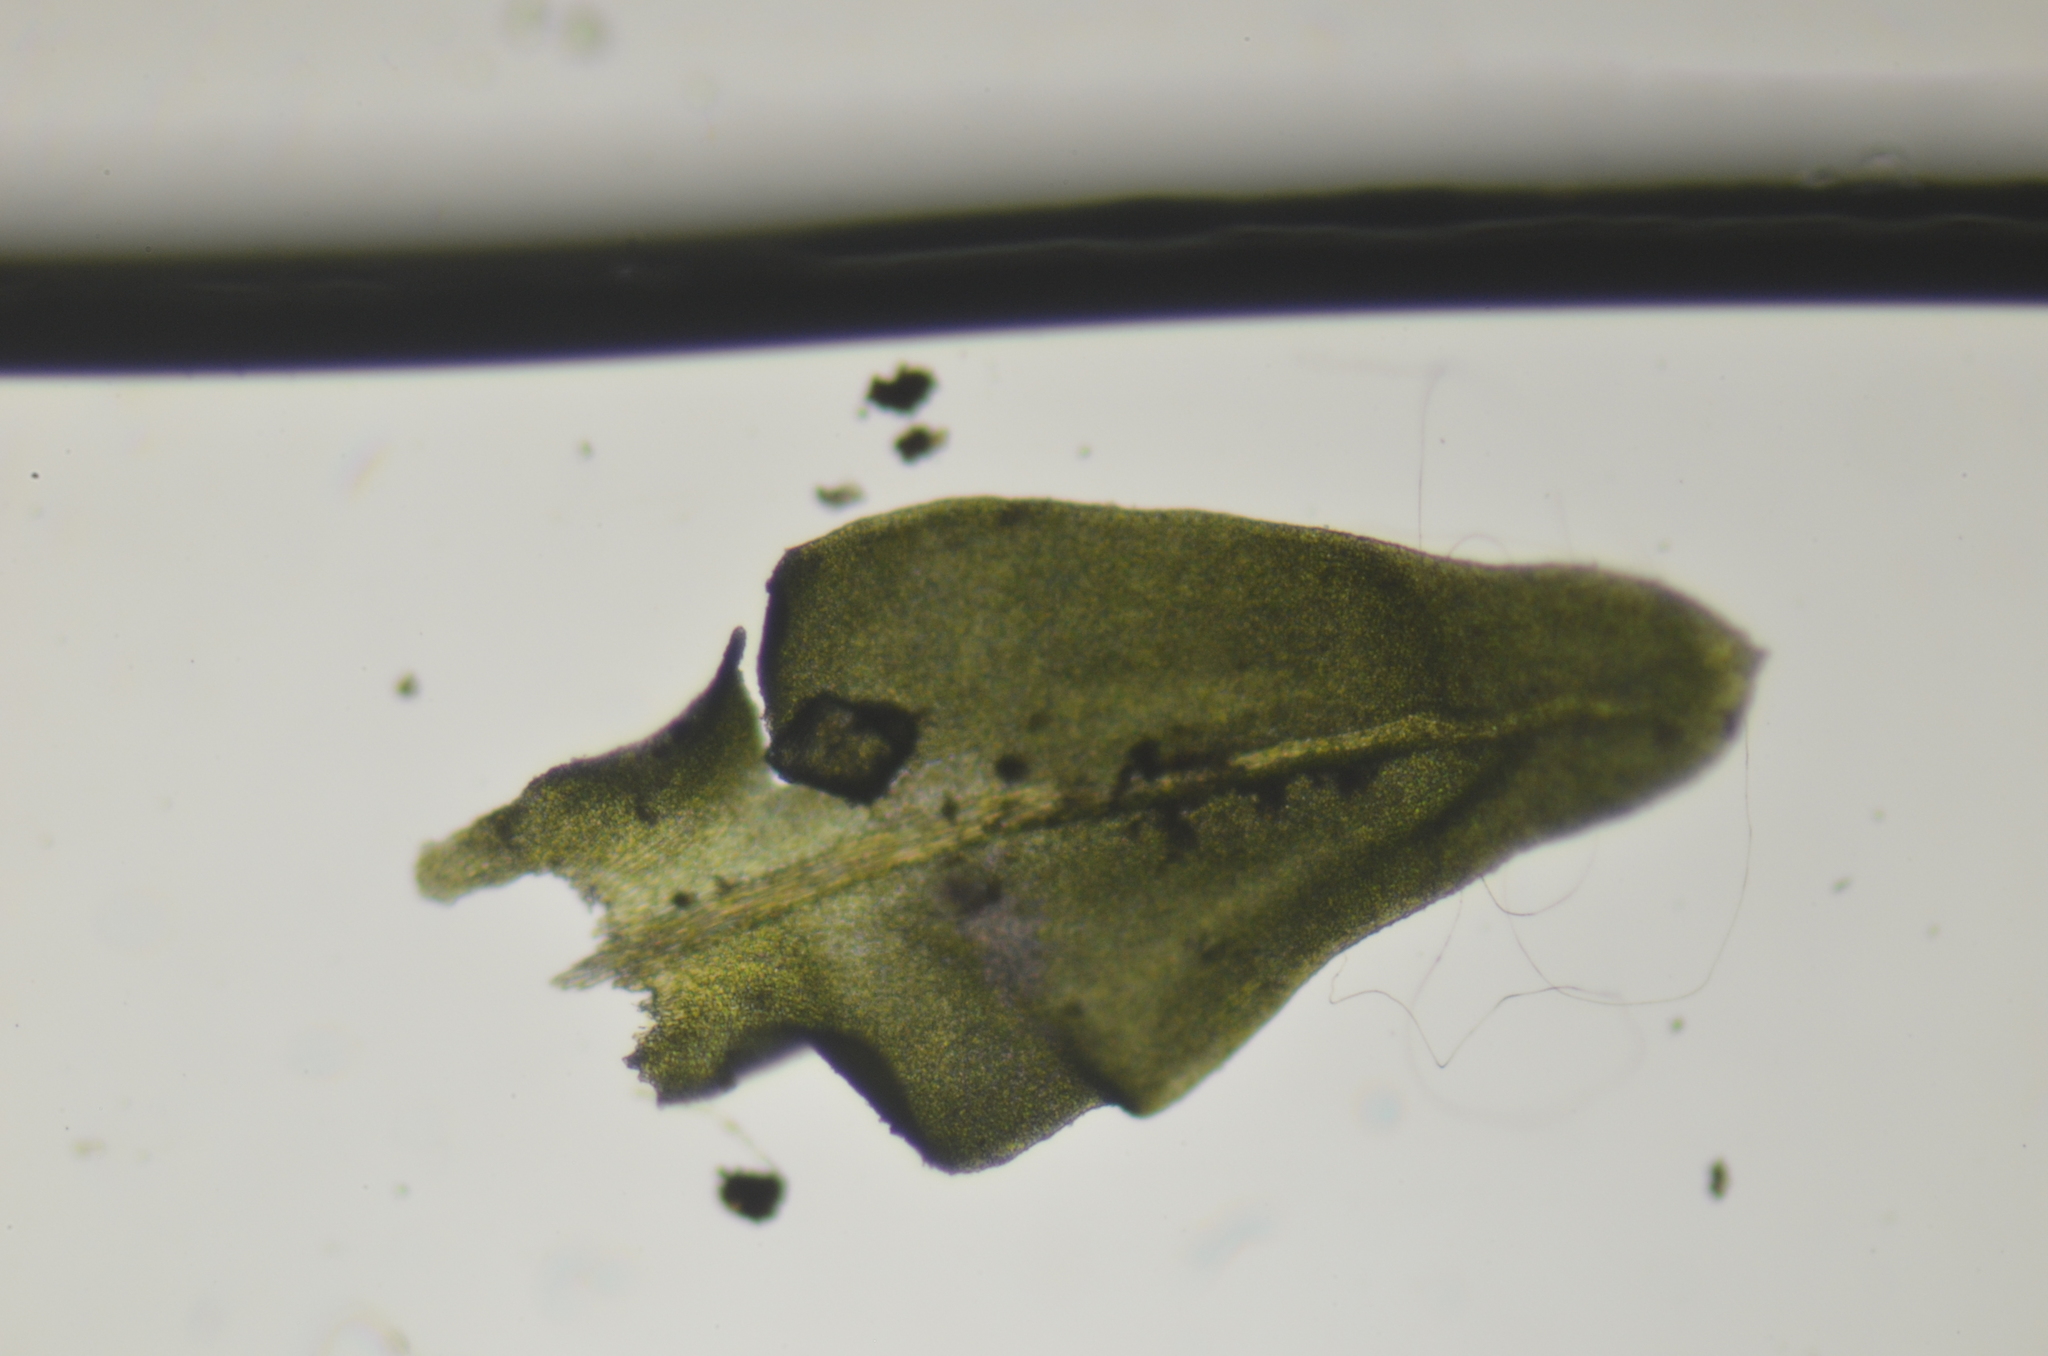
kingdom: Plantae
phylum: Bryophyta
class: Bryopsida
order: Hypnales
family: Neckeraceae
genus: Pseudanomodon
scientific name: Pseudanomodon attenuatus
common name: Tree-skirt moss
